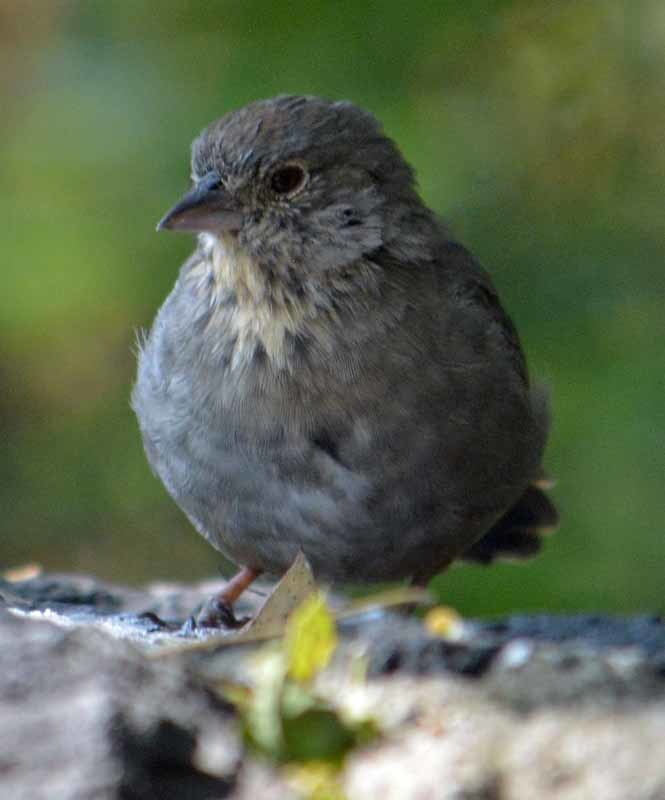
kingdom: Animalia
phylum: Chordata
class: Aves
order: Passeriformes
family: Passerellidae
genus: Melozone
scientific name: Melozone fusca
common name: Canyon towhee
